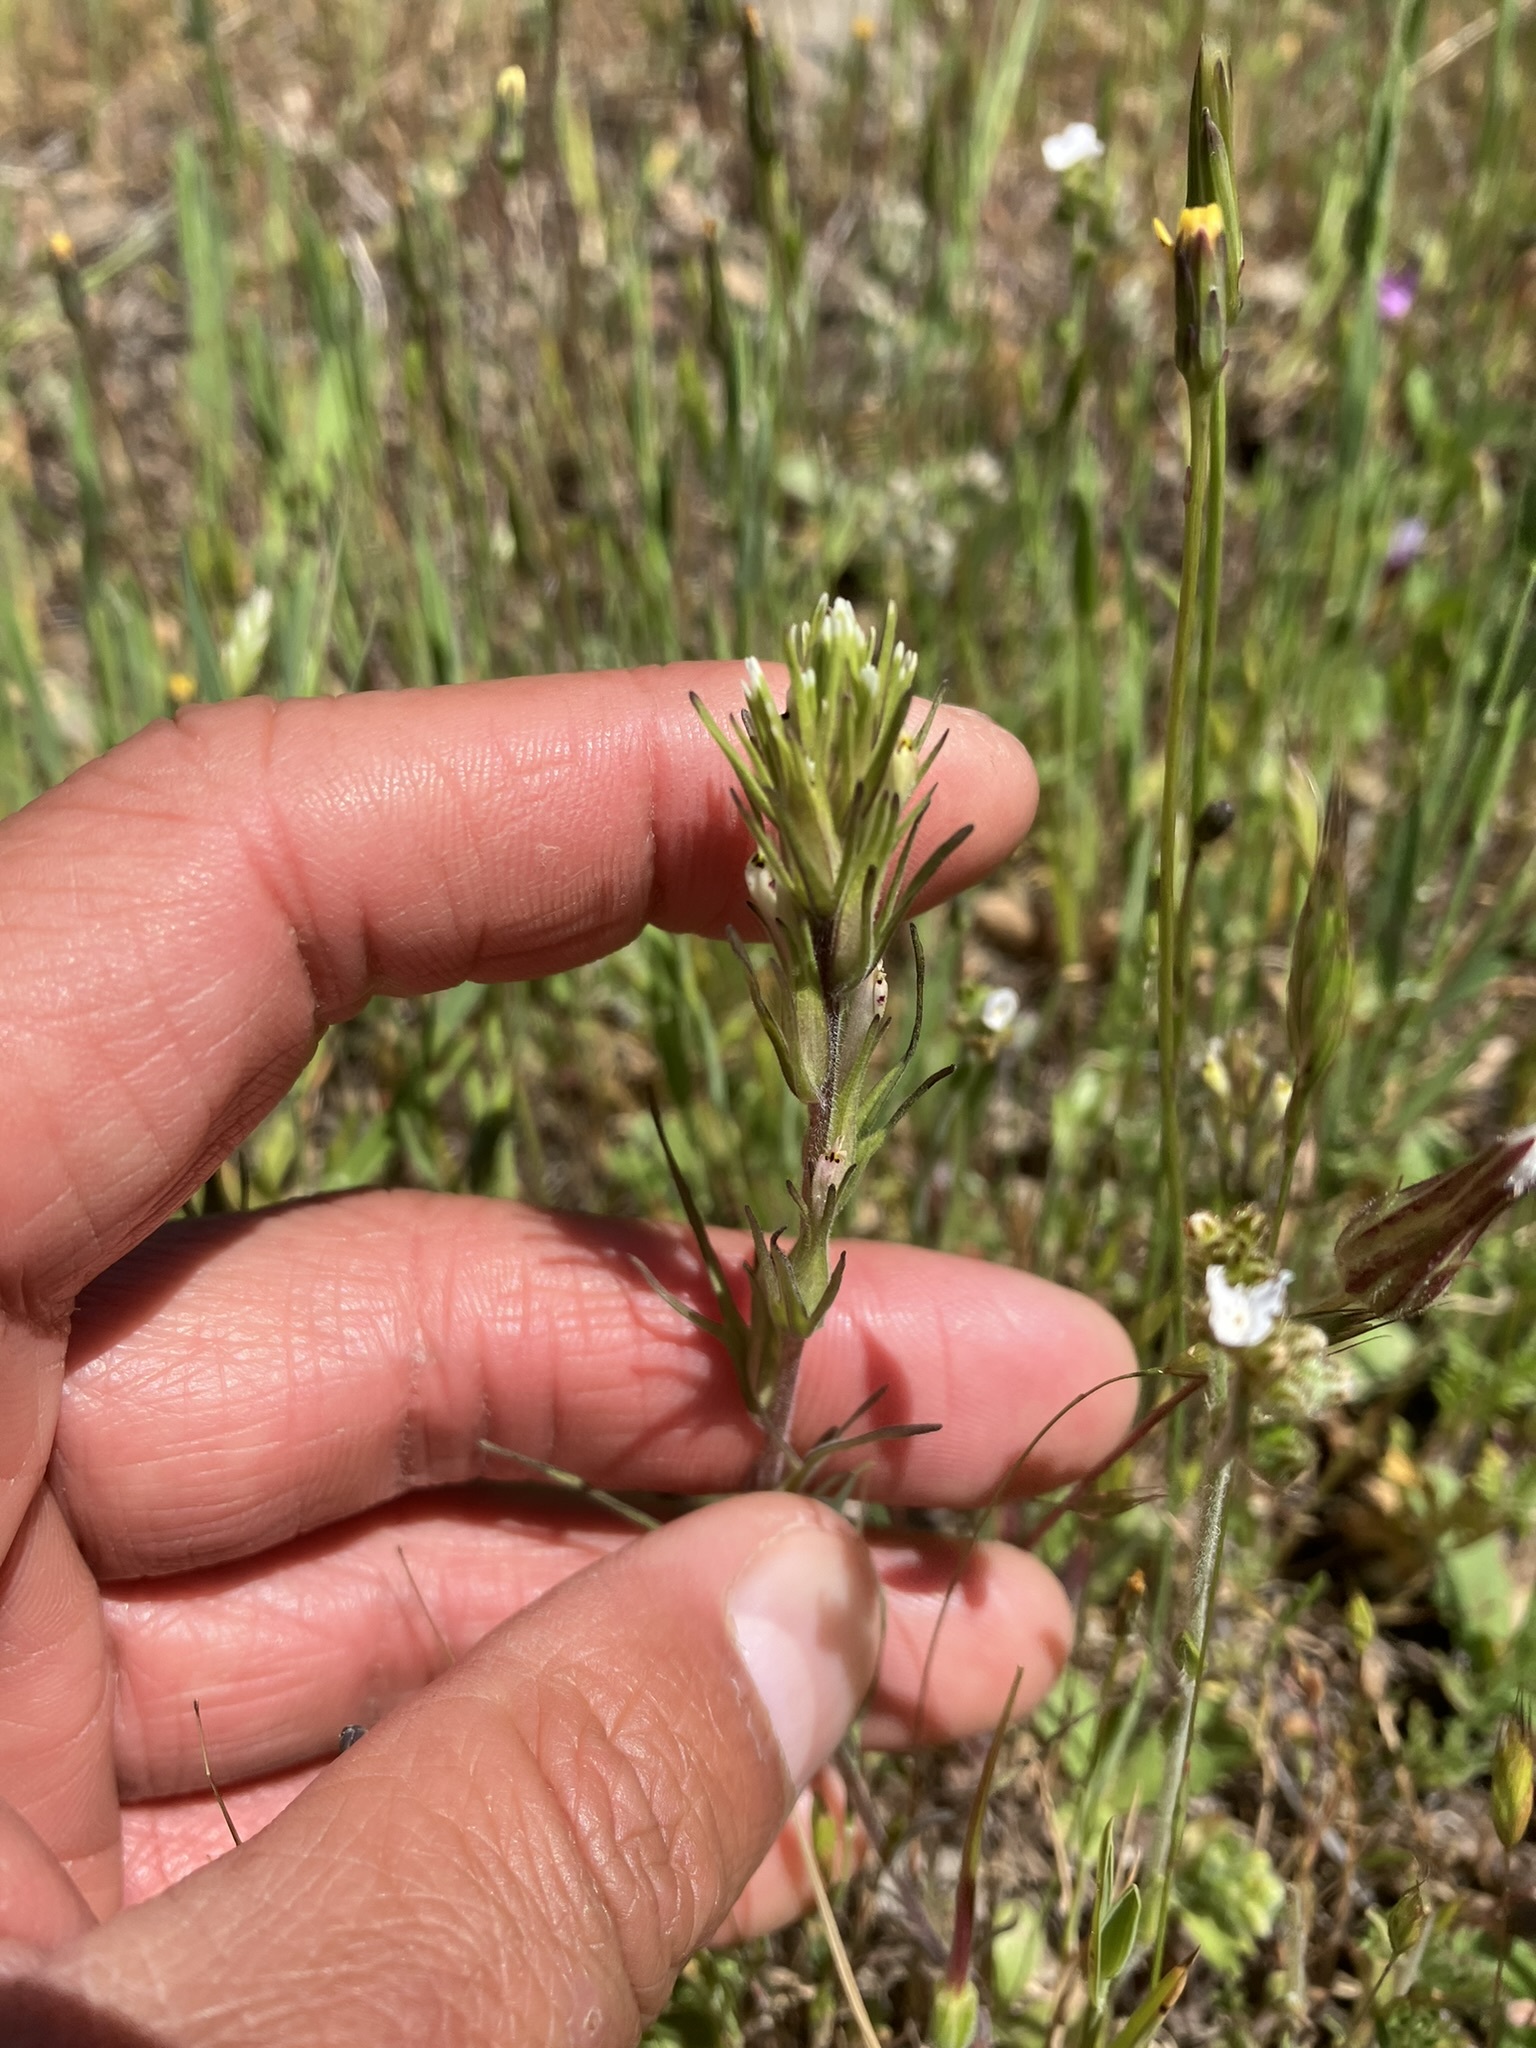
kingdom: Plantae
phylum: Tracheophyta
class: Magnoliopsida
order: Lamiales
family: Orobanchaceae
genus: Castilleja
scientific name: Castilleja attenuata
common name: Valley tassels
